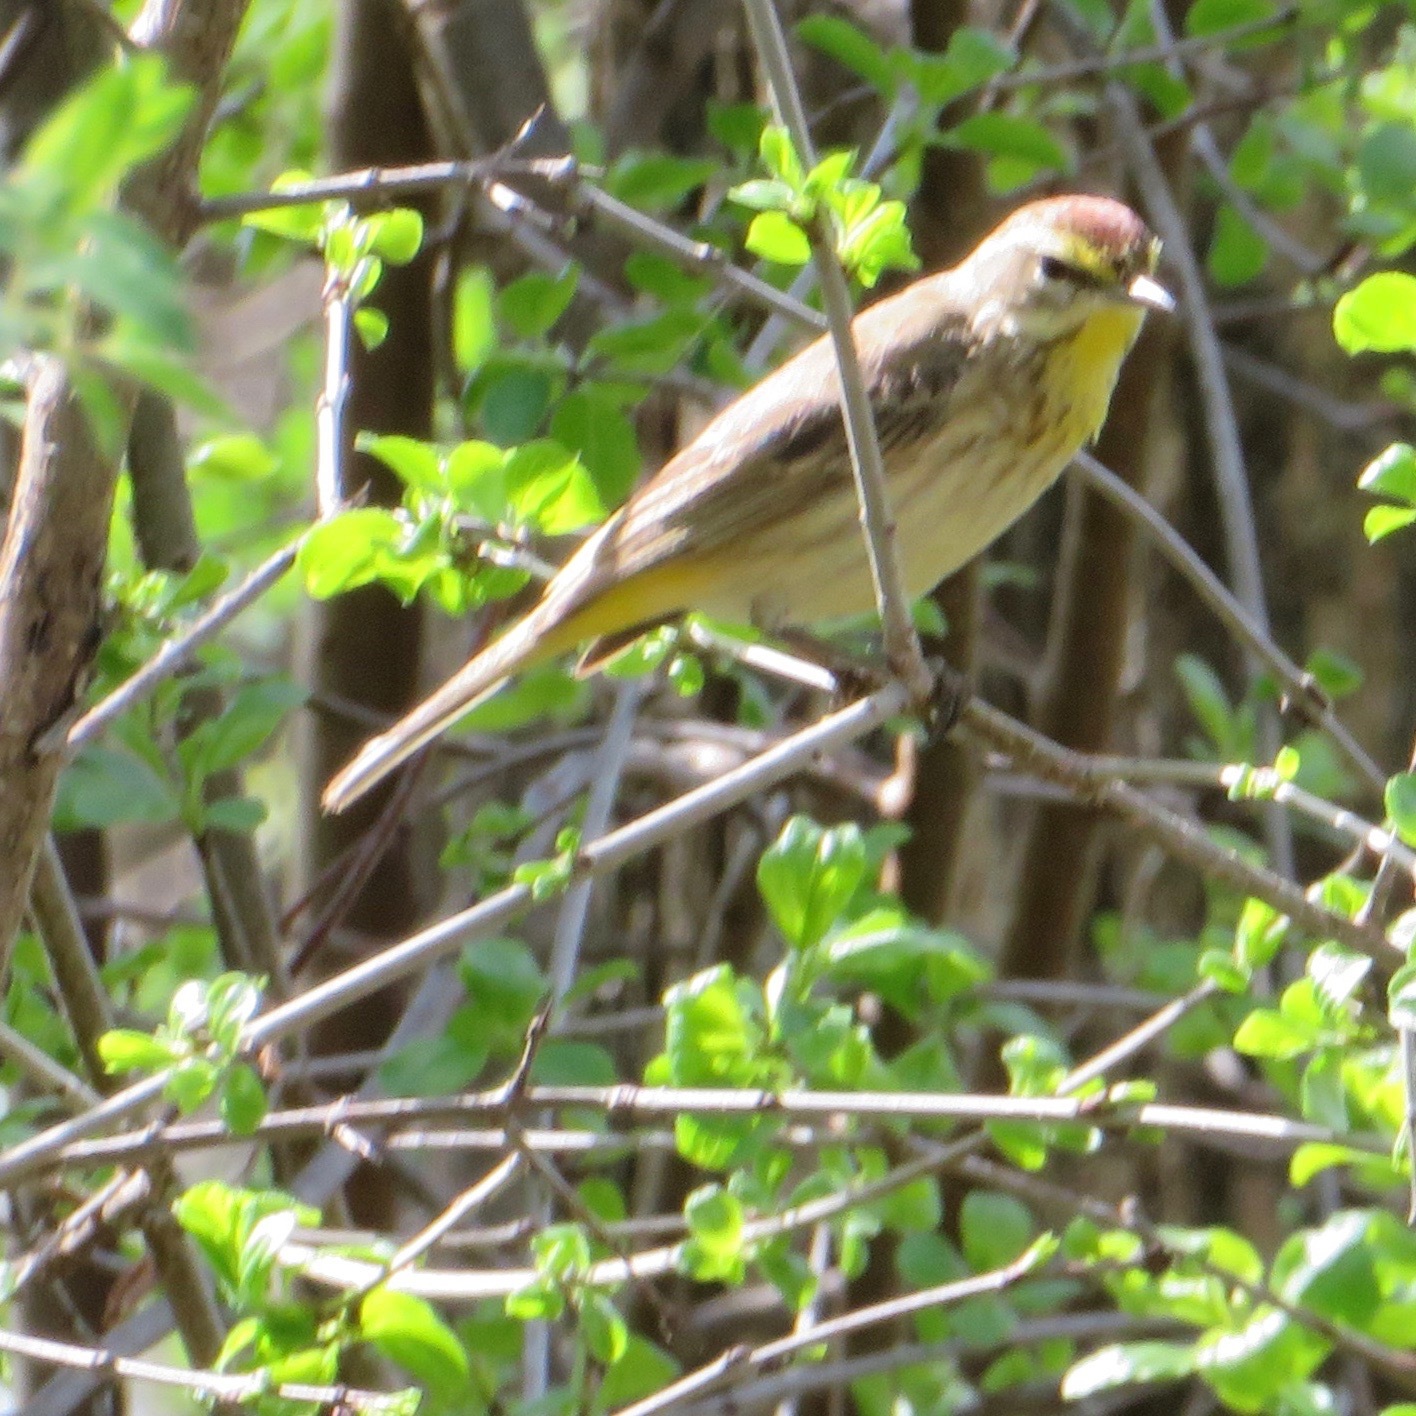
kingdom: Animalia
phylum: Chordata
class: Aves
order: Passeriformes
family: Parulidae
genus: Setophaga
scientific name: Setophaga palmarum
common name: Palm warbler
